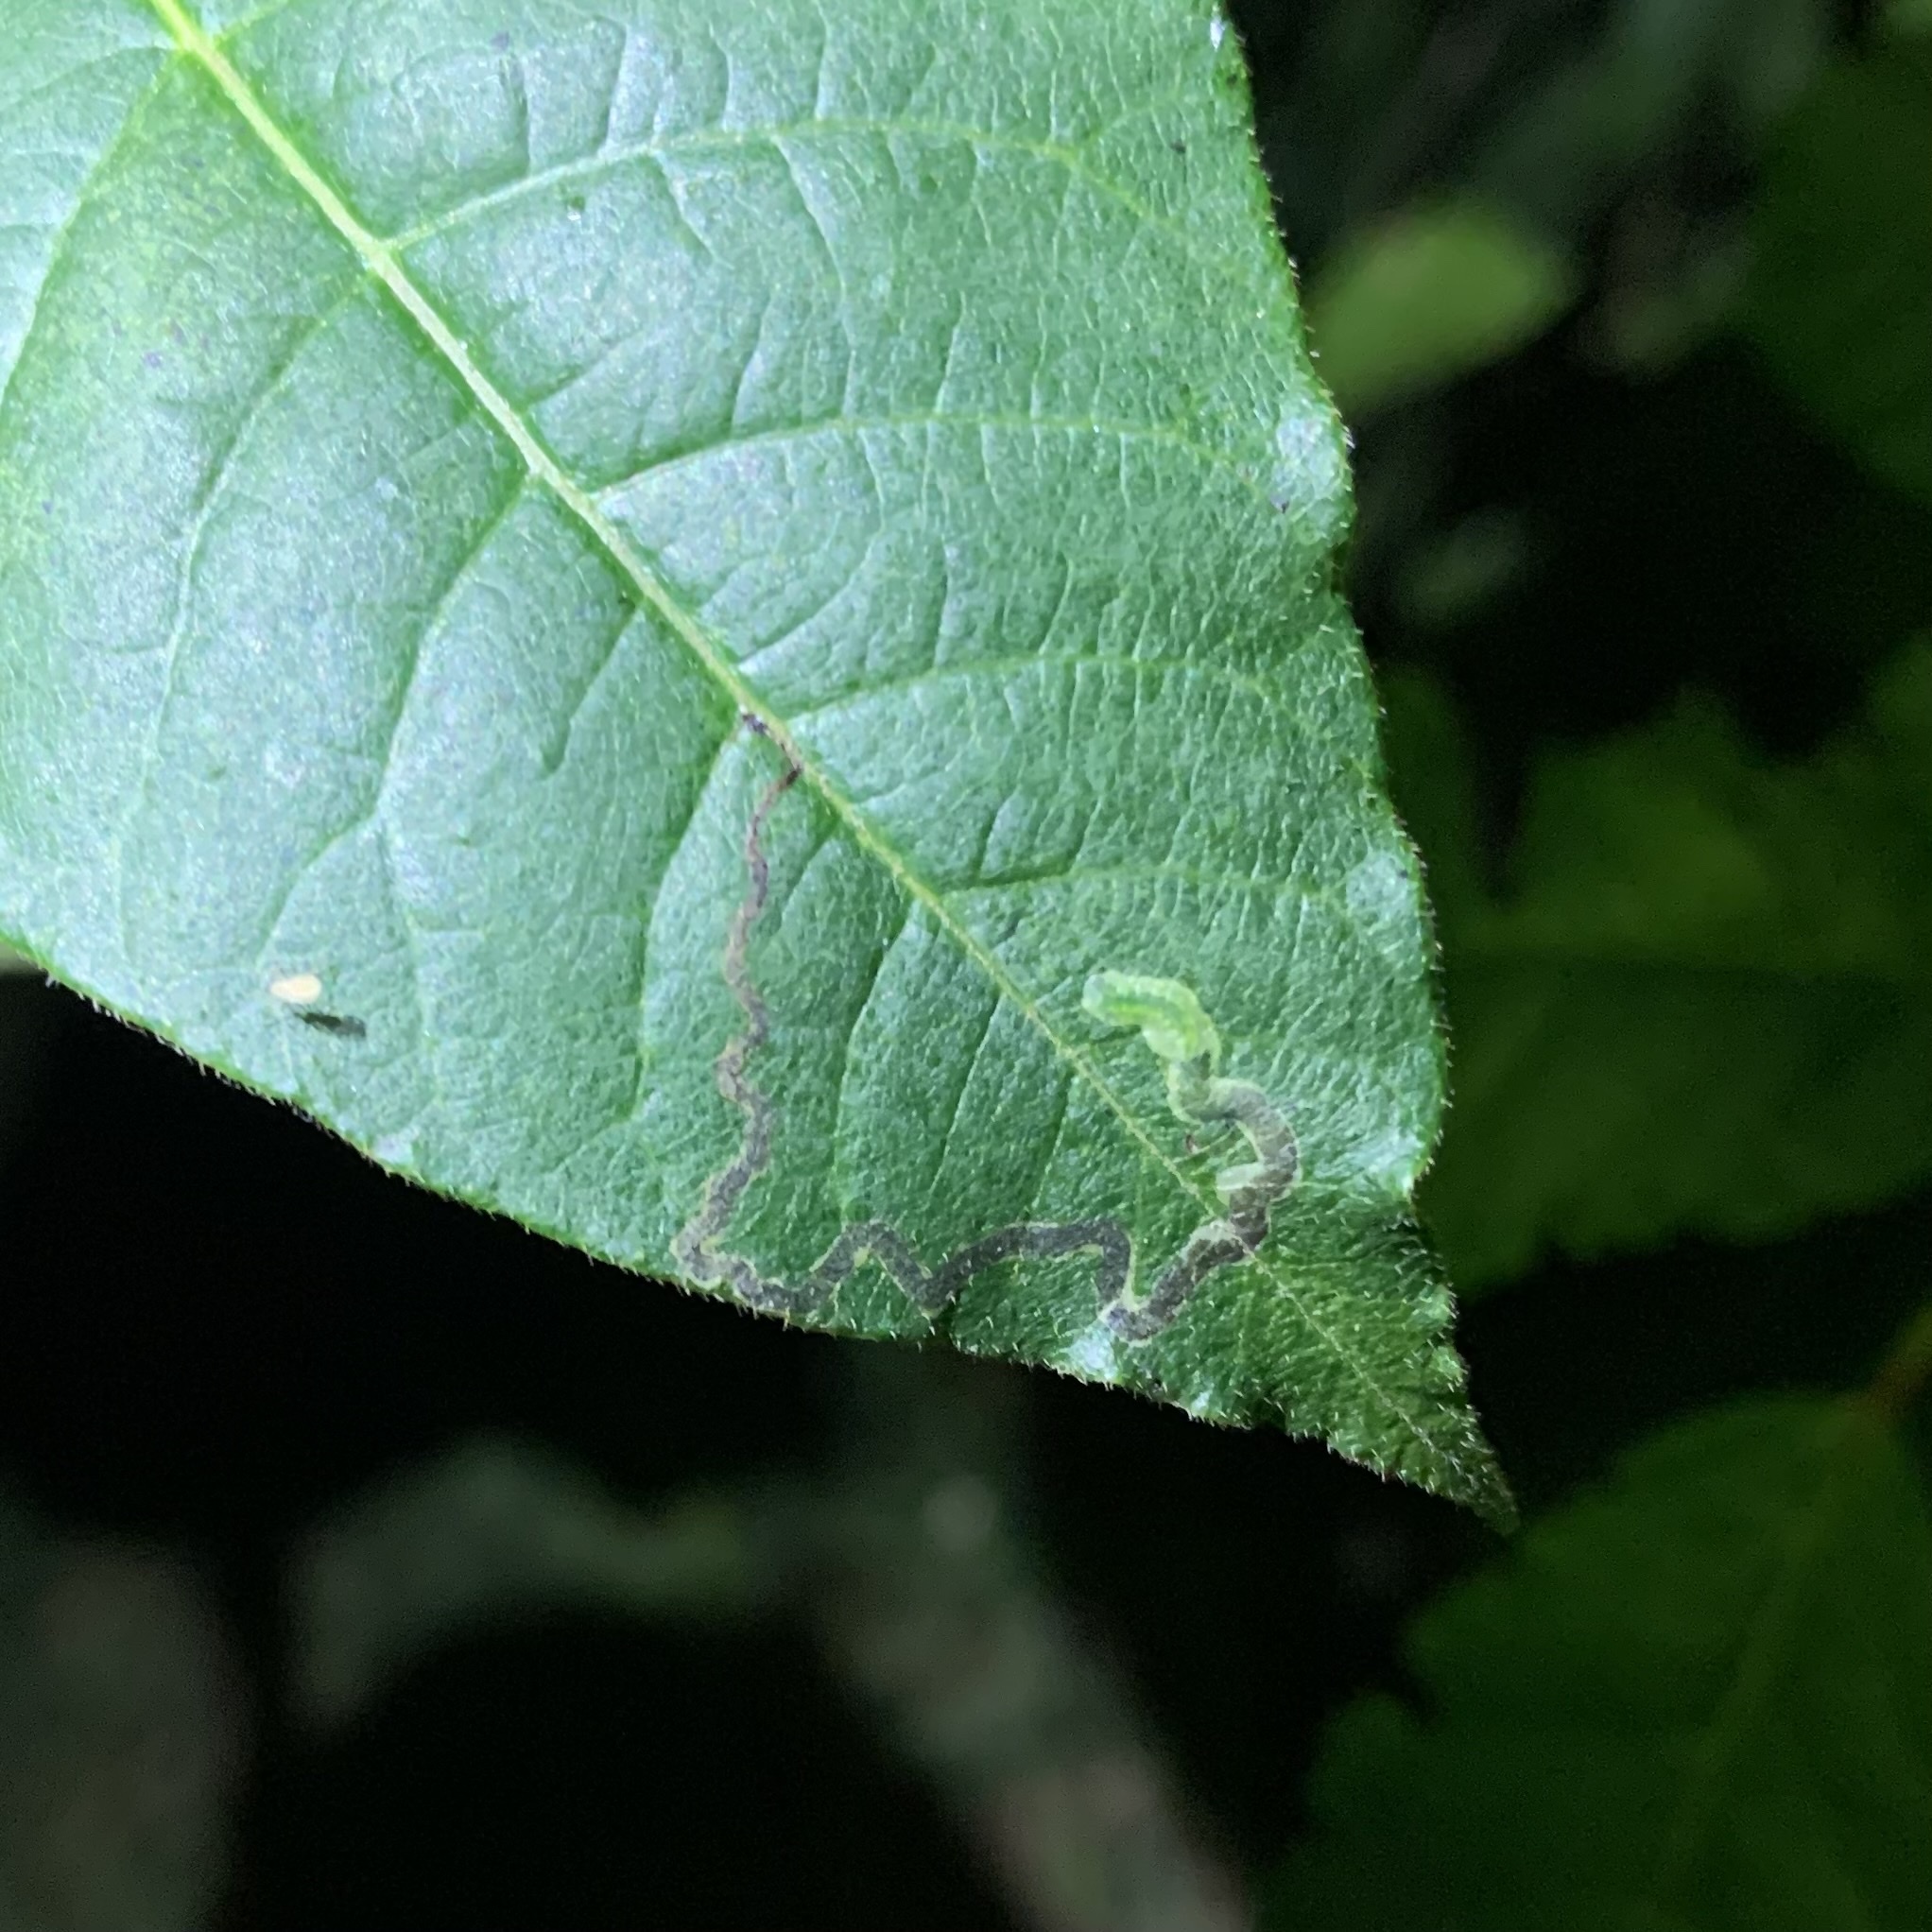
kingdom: Animalia
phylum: Arthropoda
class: Insecta
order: Lepidoptera
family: Nepticulidae
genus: Stigmella
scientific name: Stigmella rhoifoliella
